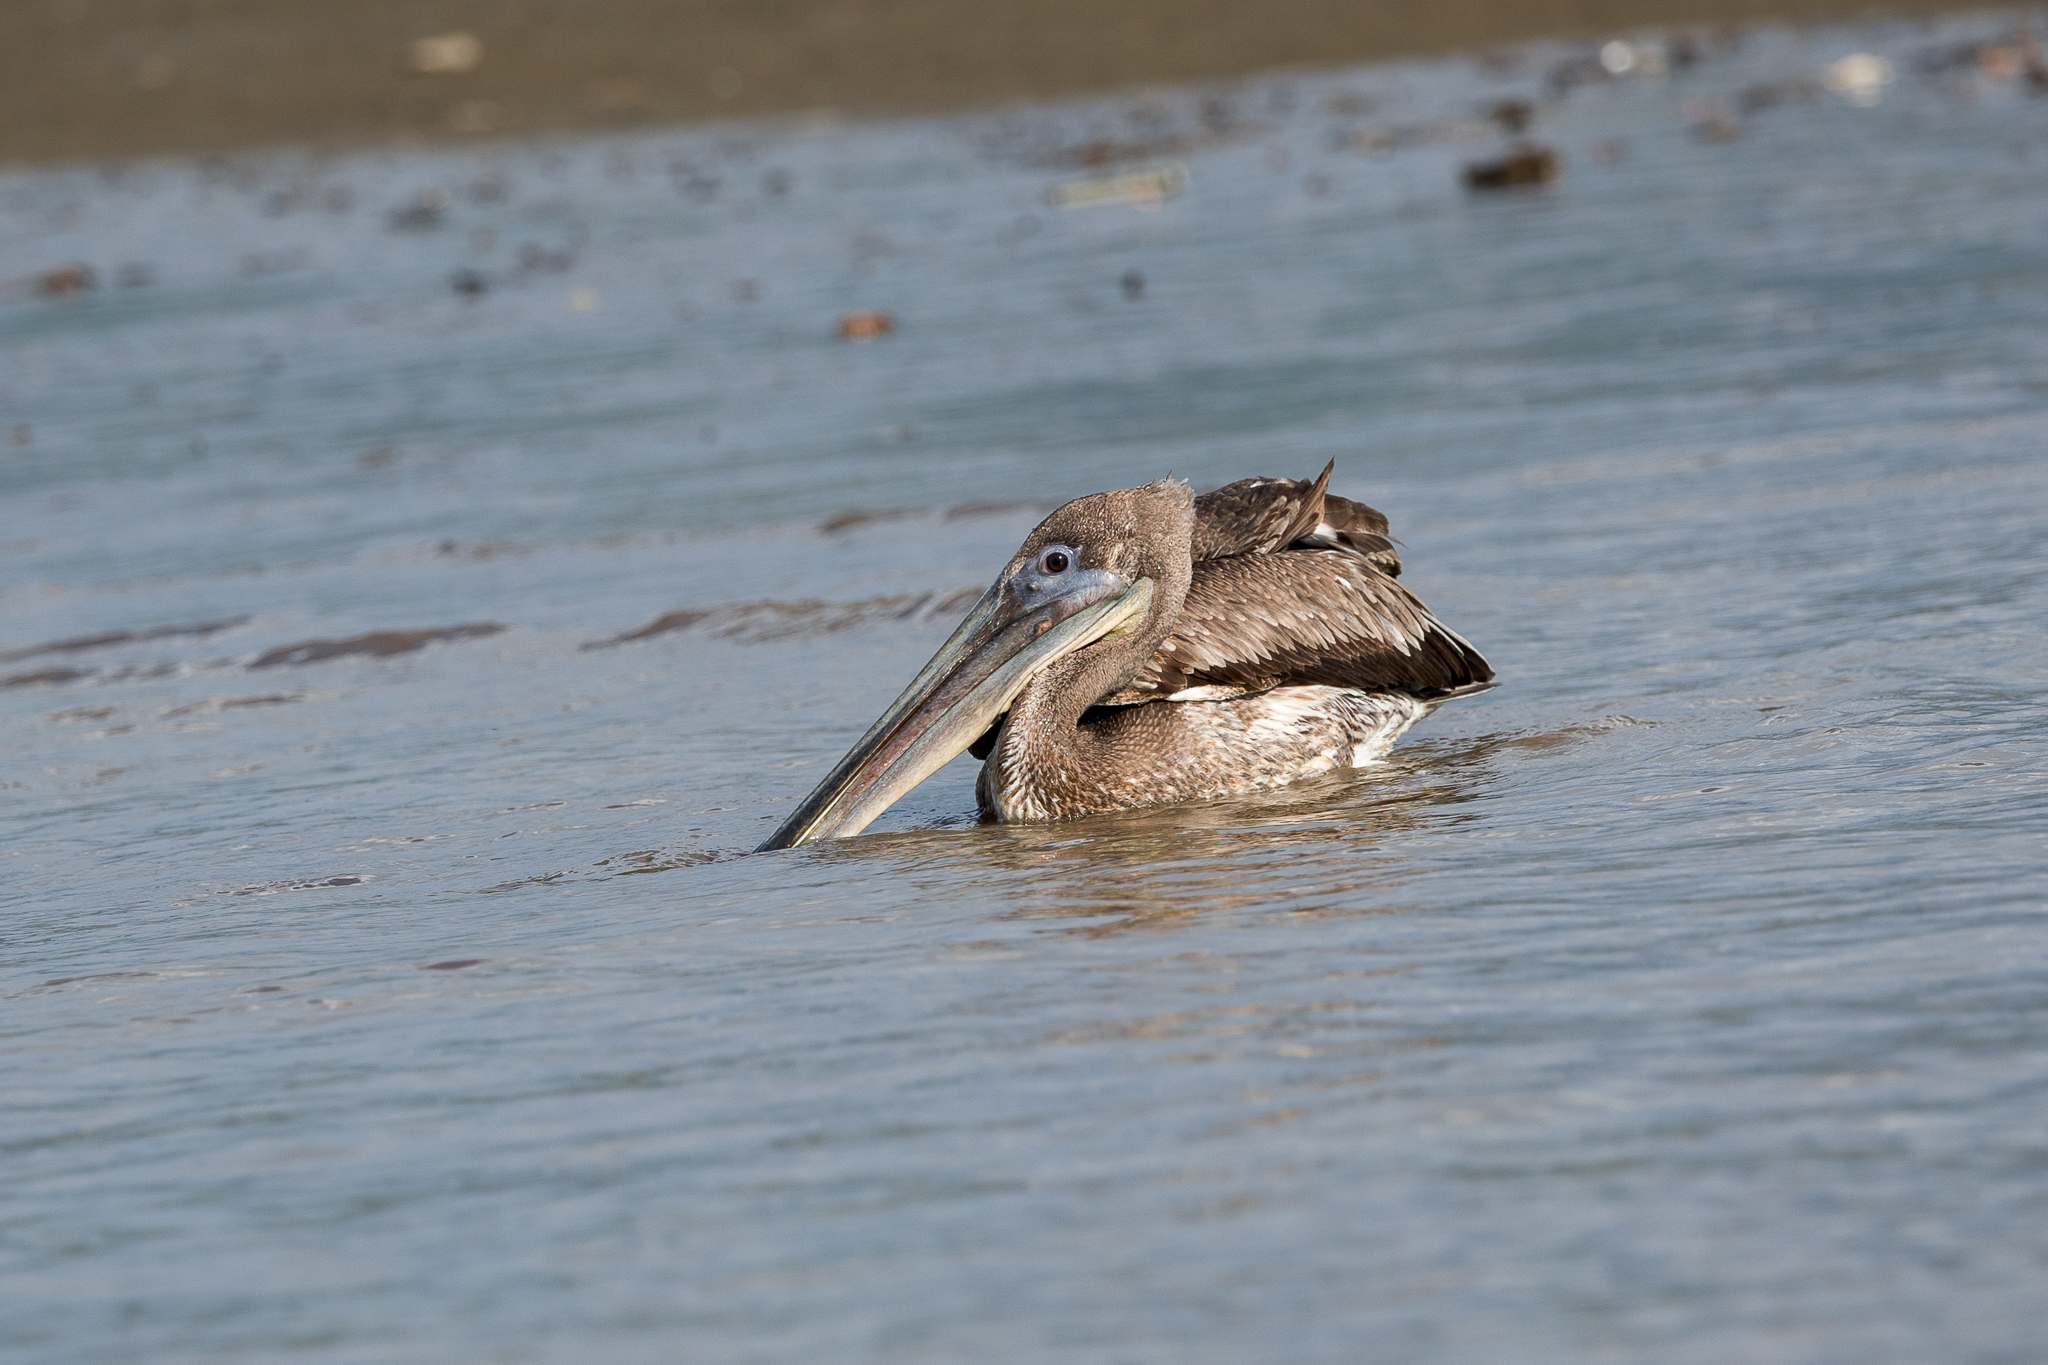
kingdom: Animalia
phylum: Chordata
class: Aves
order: Pelecaniformes
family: Pelecanidae
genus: Pelecanus
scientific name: Pelecanus occidentalis
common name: Brown pelican
